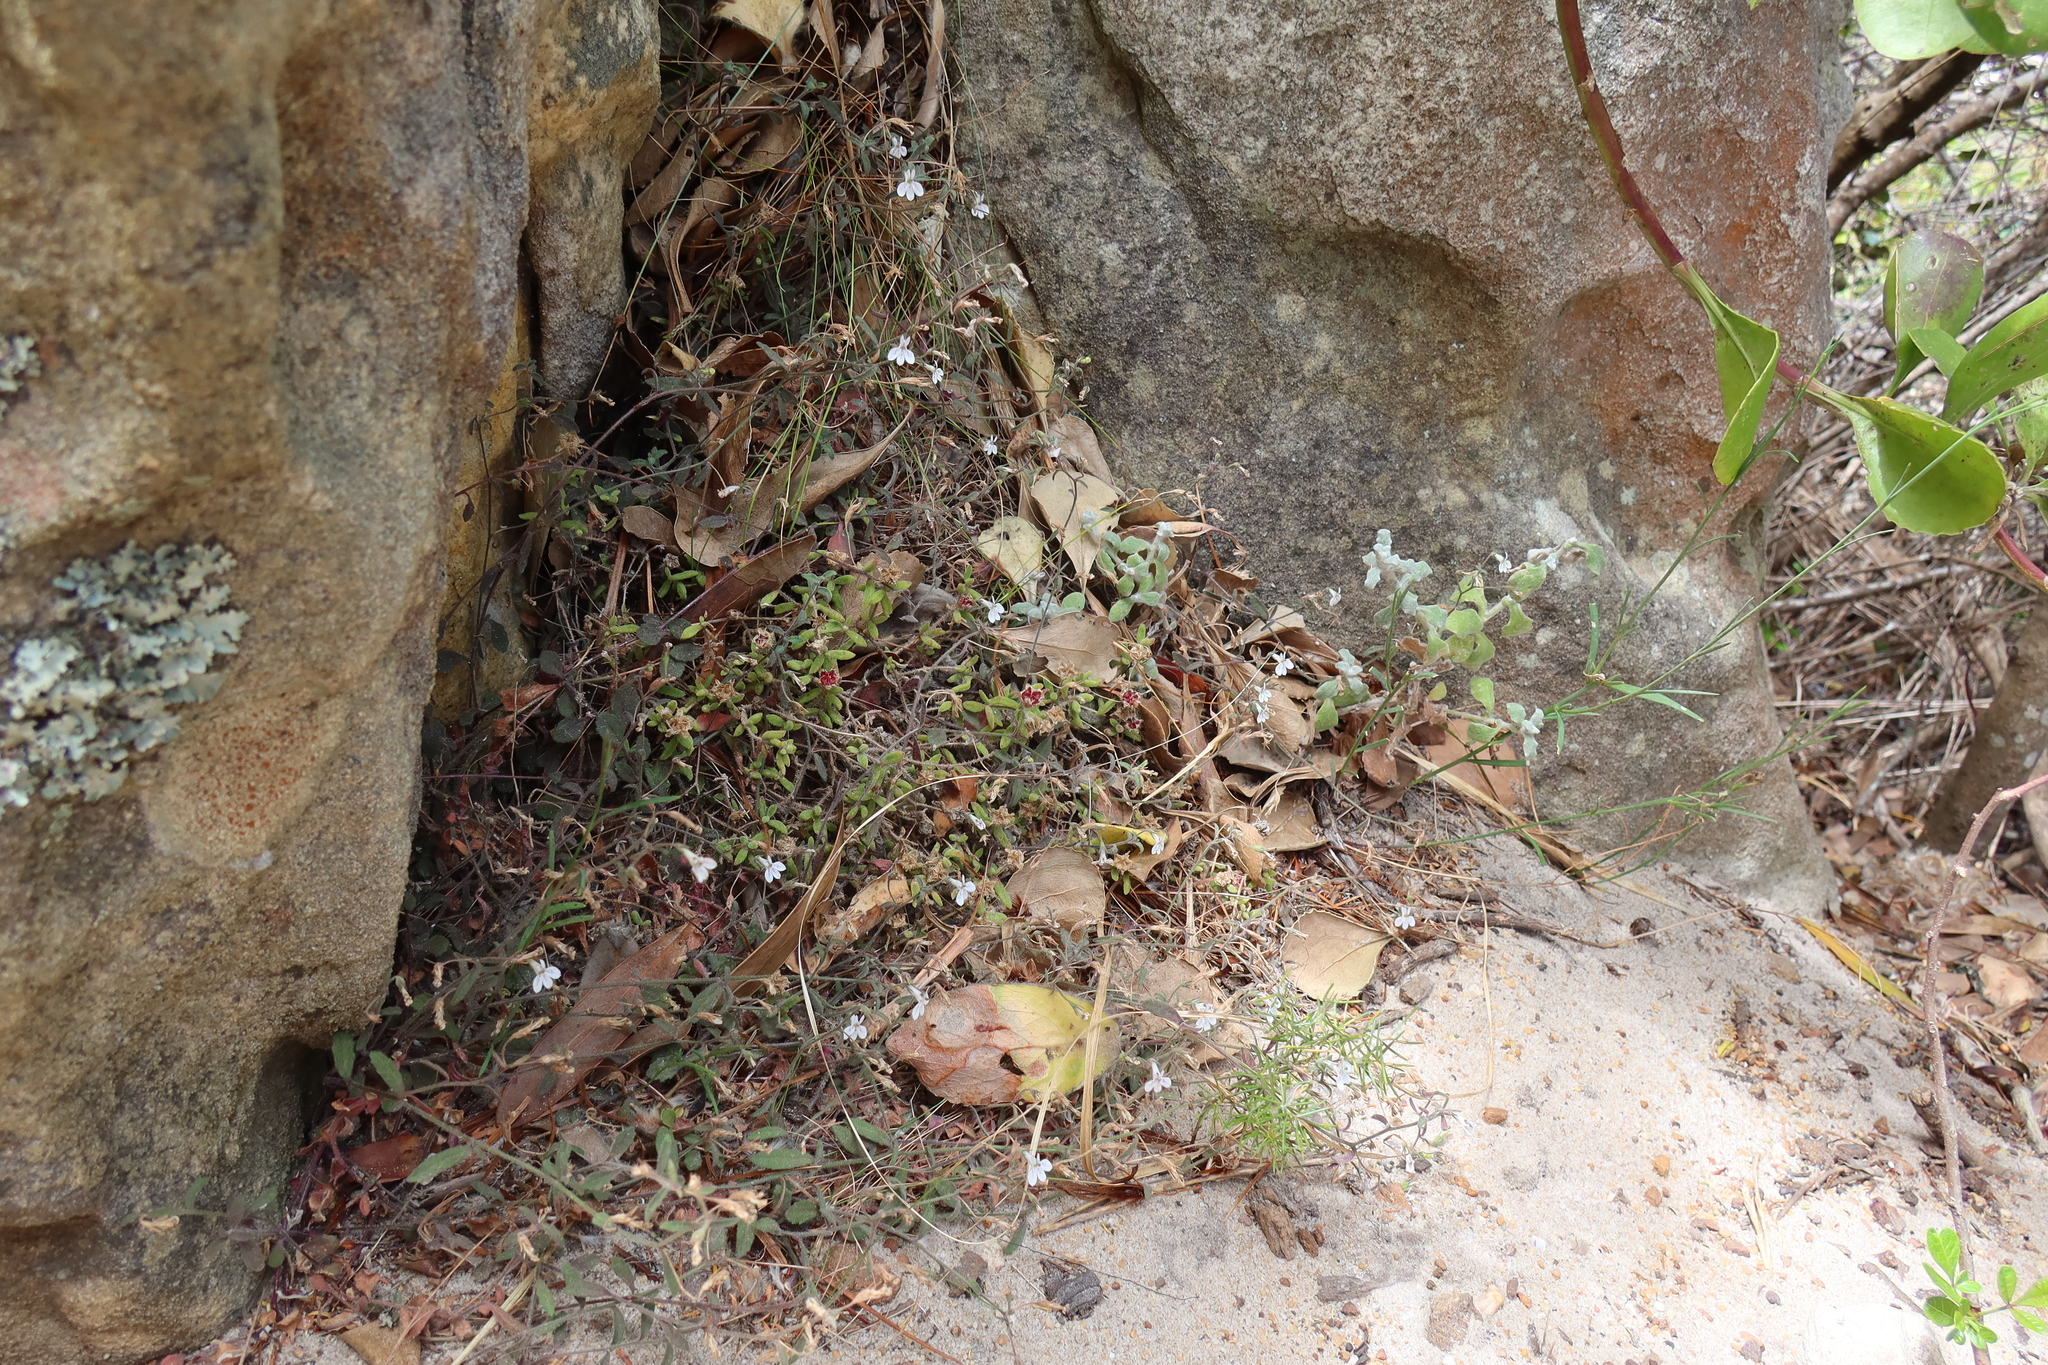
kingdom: Plantae
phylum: Tracheophyta
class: Magnoliopsida
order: Asterales
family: Campanulaceae
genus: Lobelia
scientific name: Lobelia pubescens
